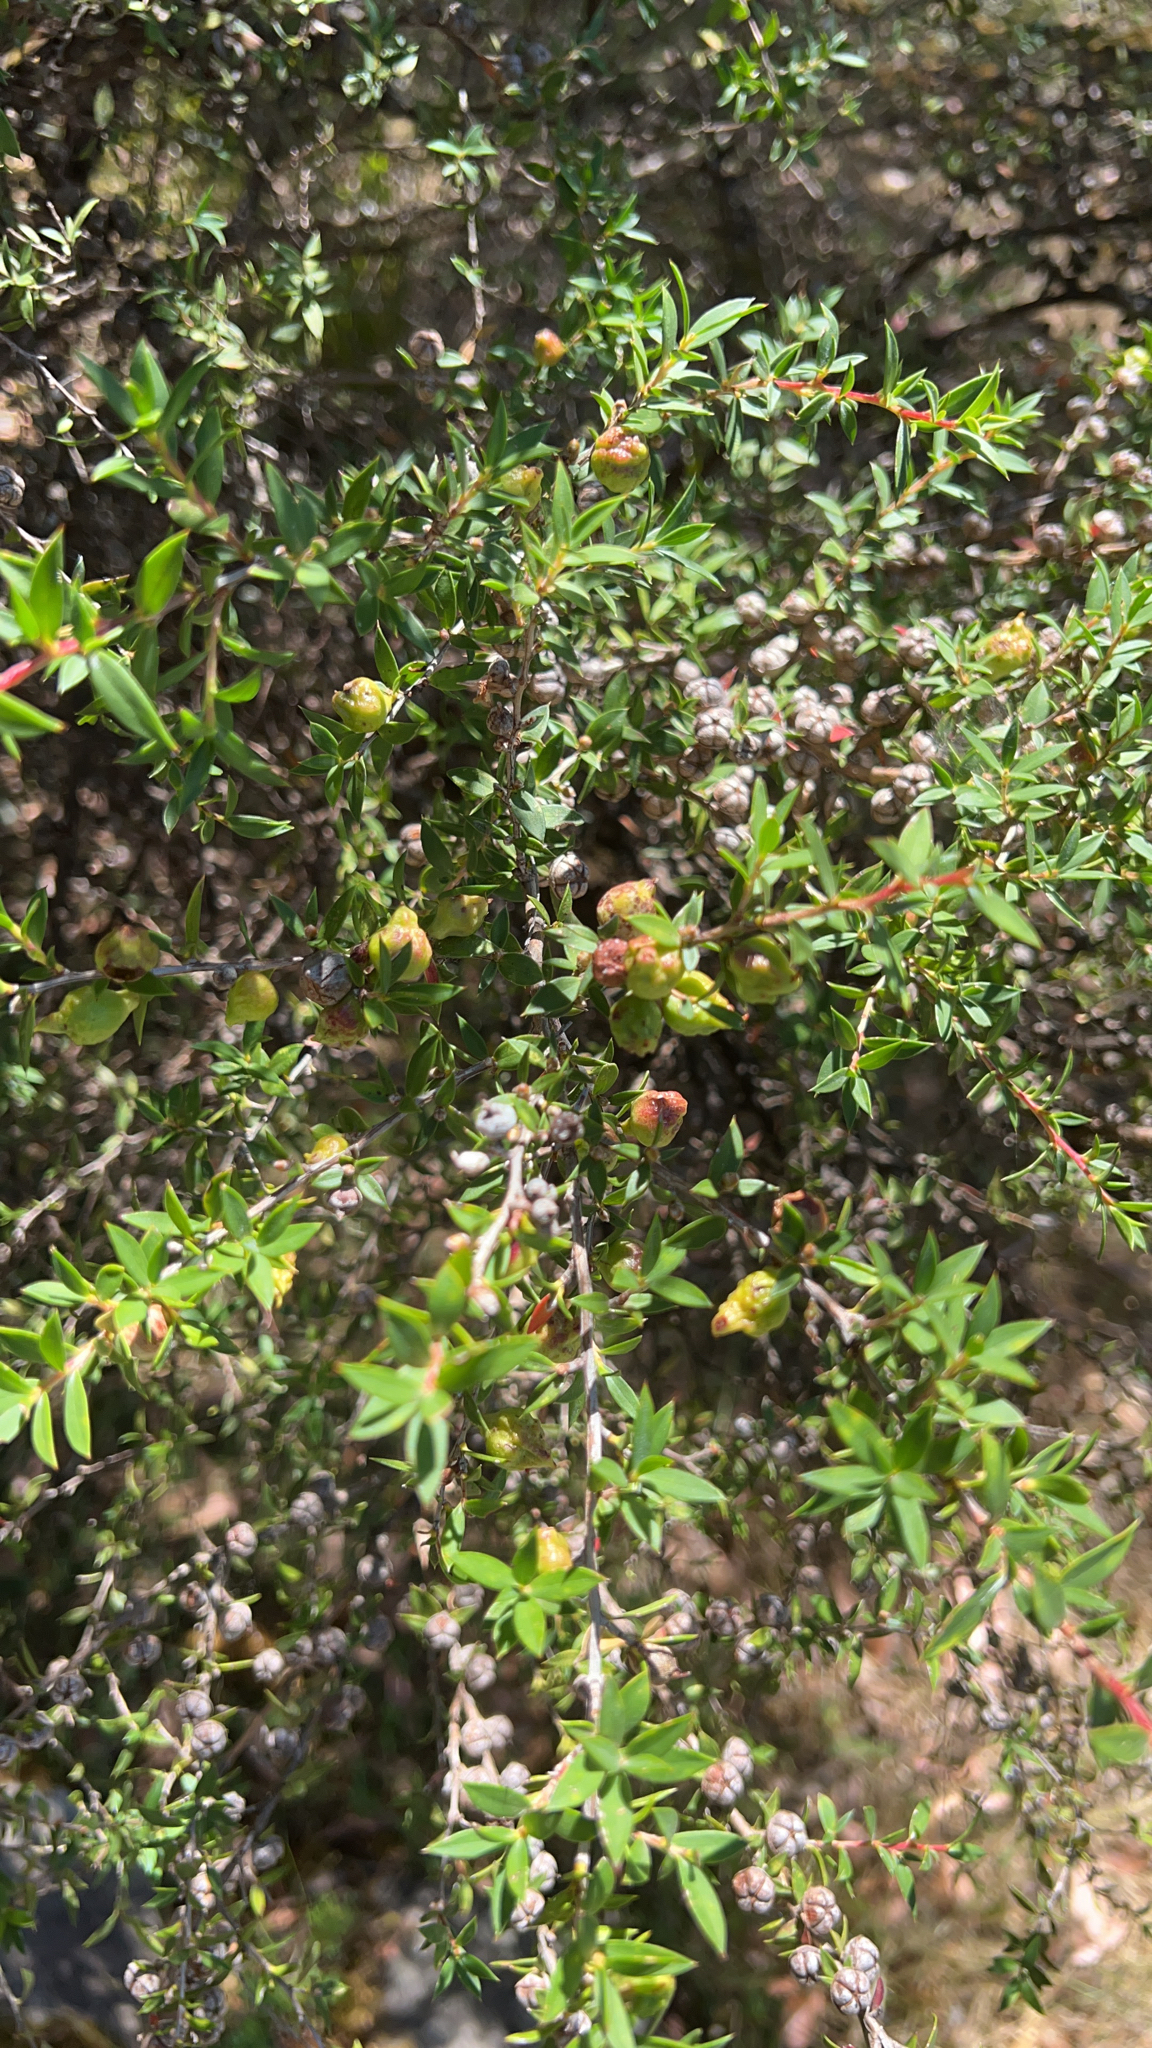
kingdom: Plantae
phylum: Tracheophyta
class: Magnoliopsida
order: Myrtales
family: Myrtaceae
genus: Leptospermum
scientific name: Leptospermum scoparium
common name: Broom tea-tree
